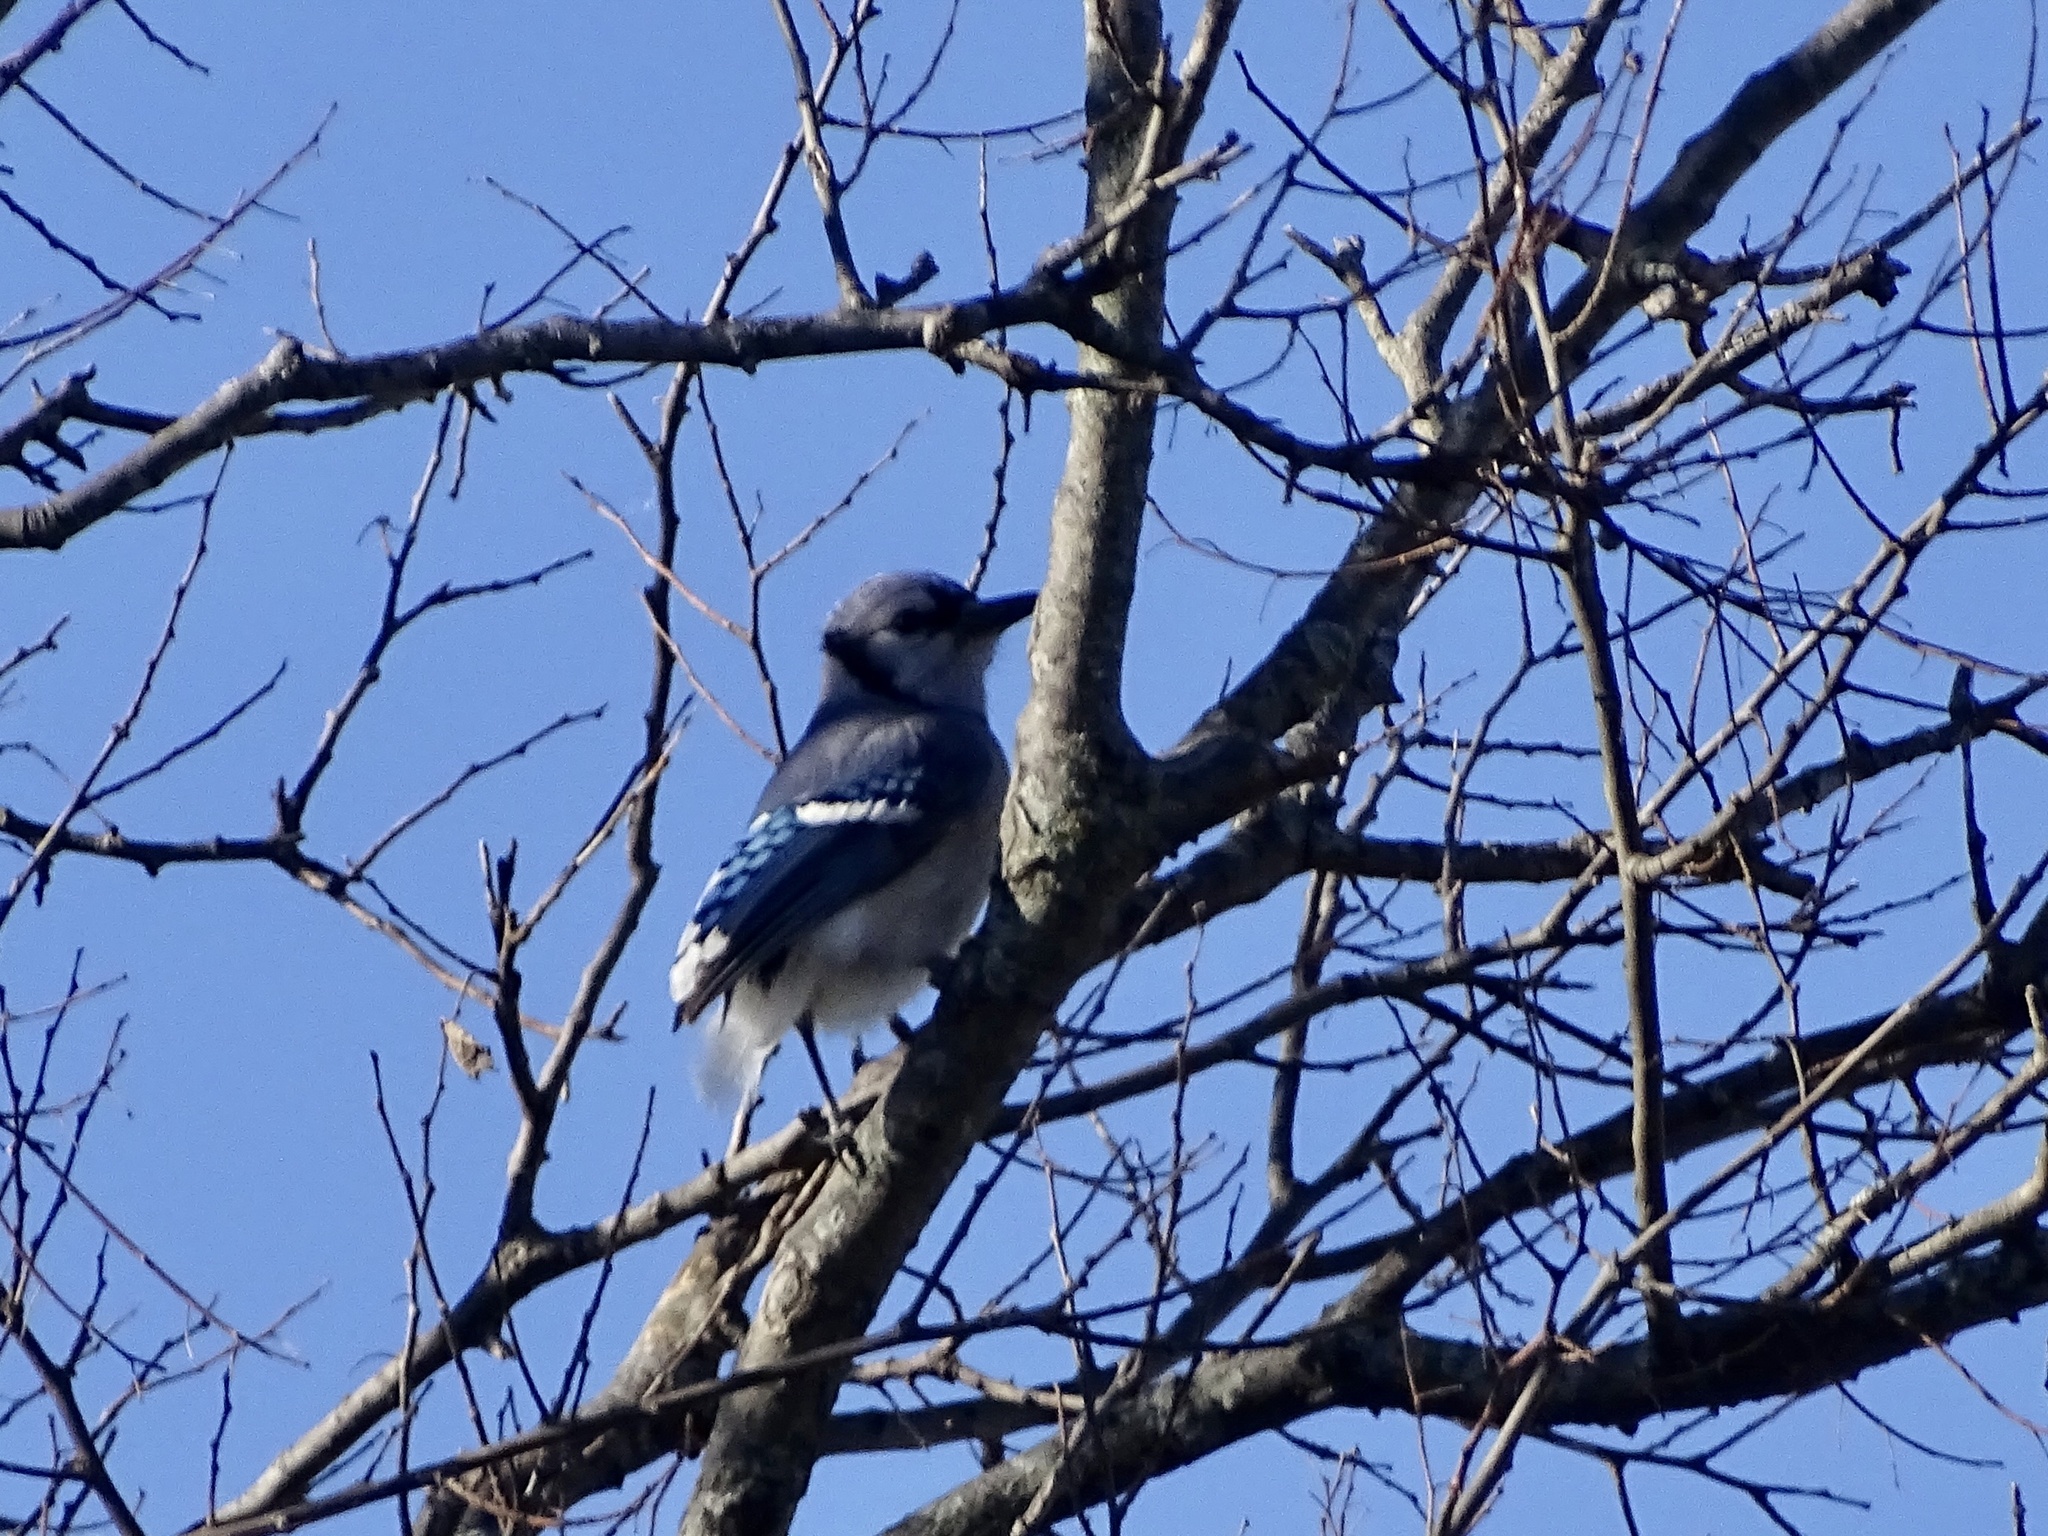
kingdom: Animalia
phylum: Chordata
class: Aves
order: Passeriformes
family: Corvidae
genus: Cyanocitta
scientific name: Cyanocitta cristata
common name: Blue jay
